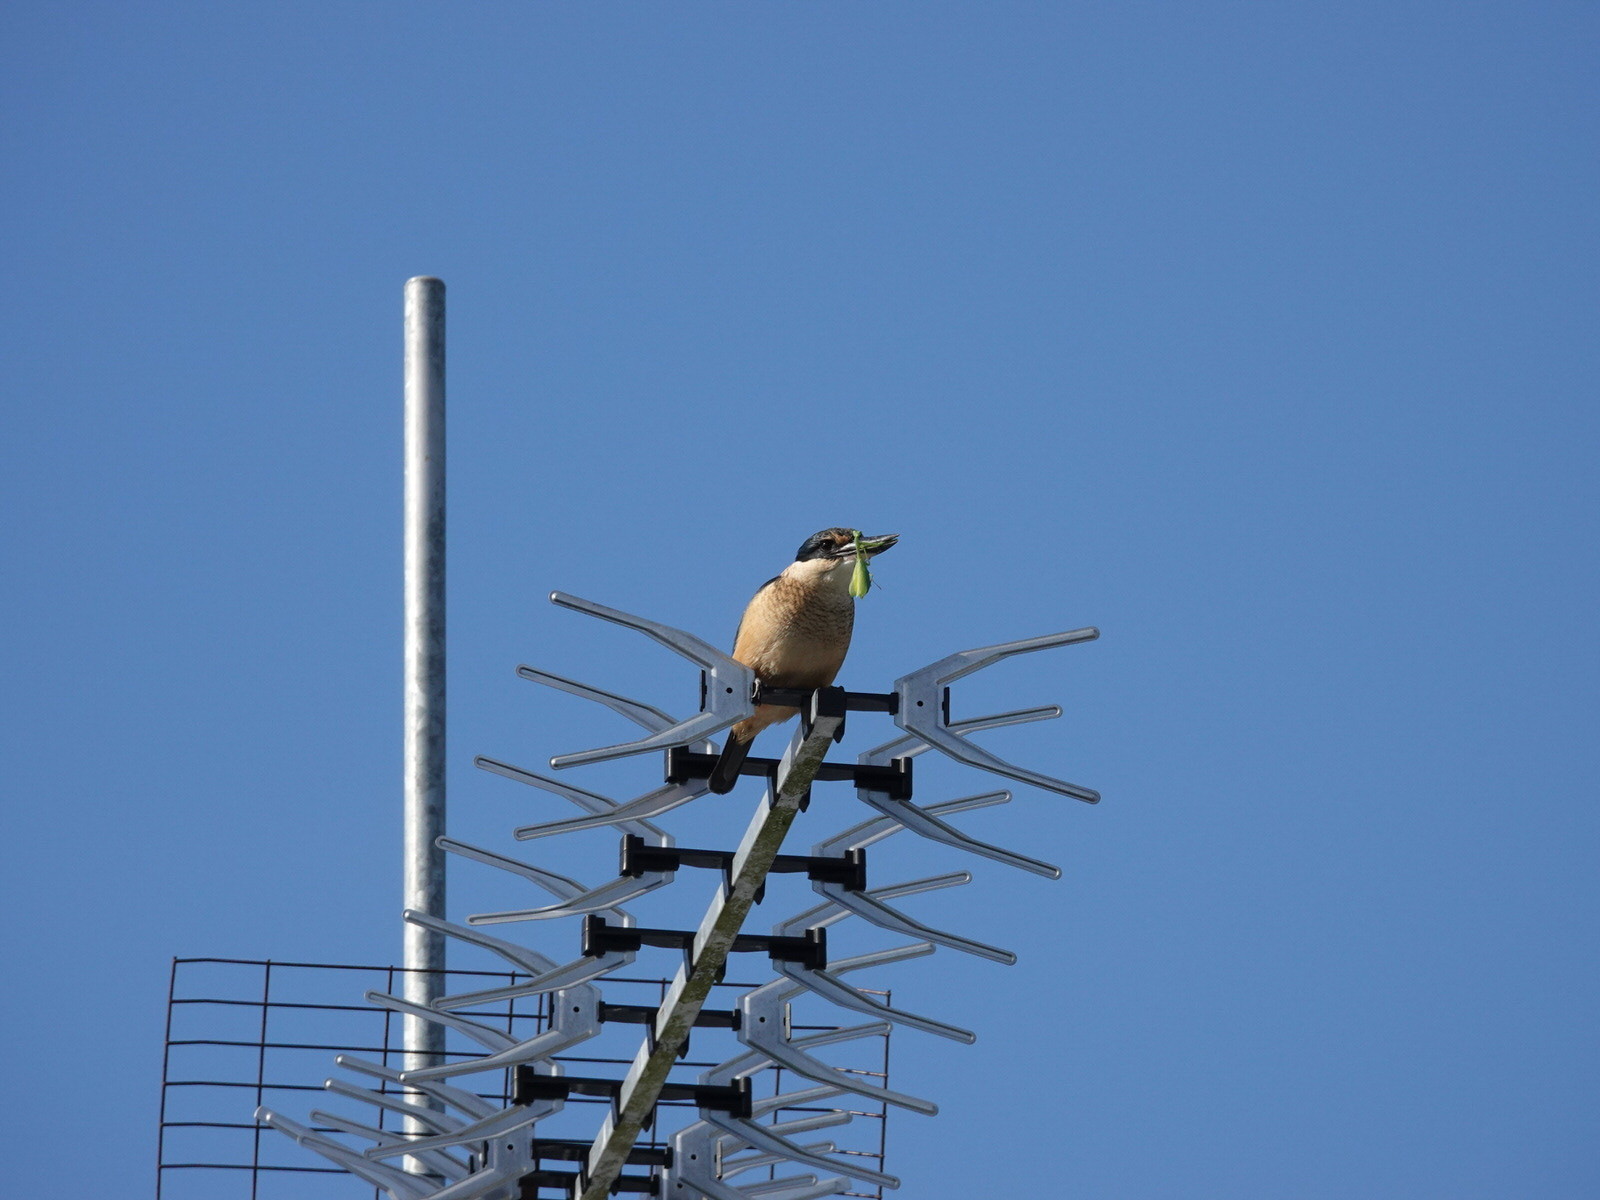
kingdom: Animalia
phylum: Chordata
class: Aves
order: Coraciiformes
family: Alcedinidae
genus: Todiramphus
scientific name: Todiramphus sanctus
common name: Sacred kingfisher
